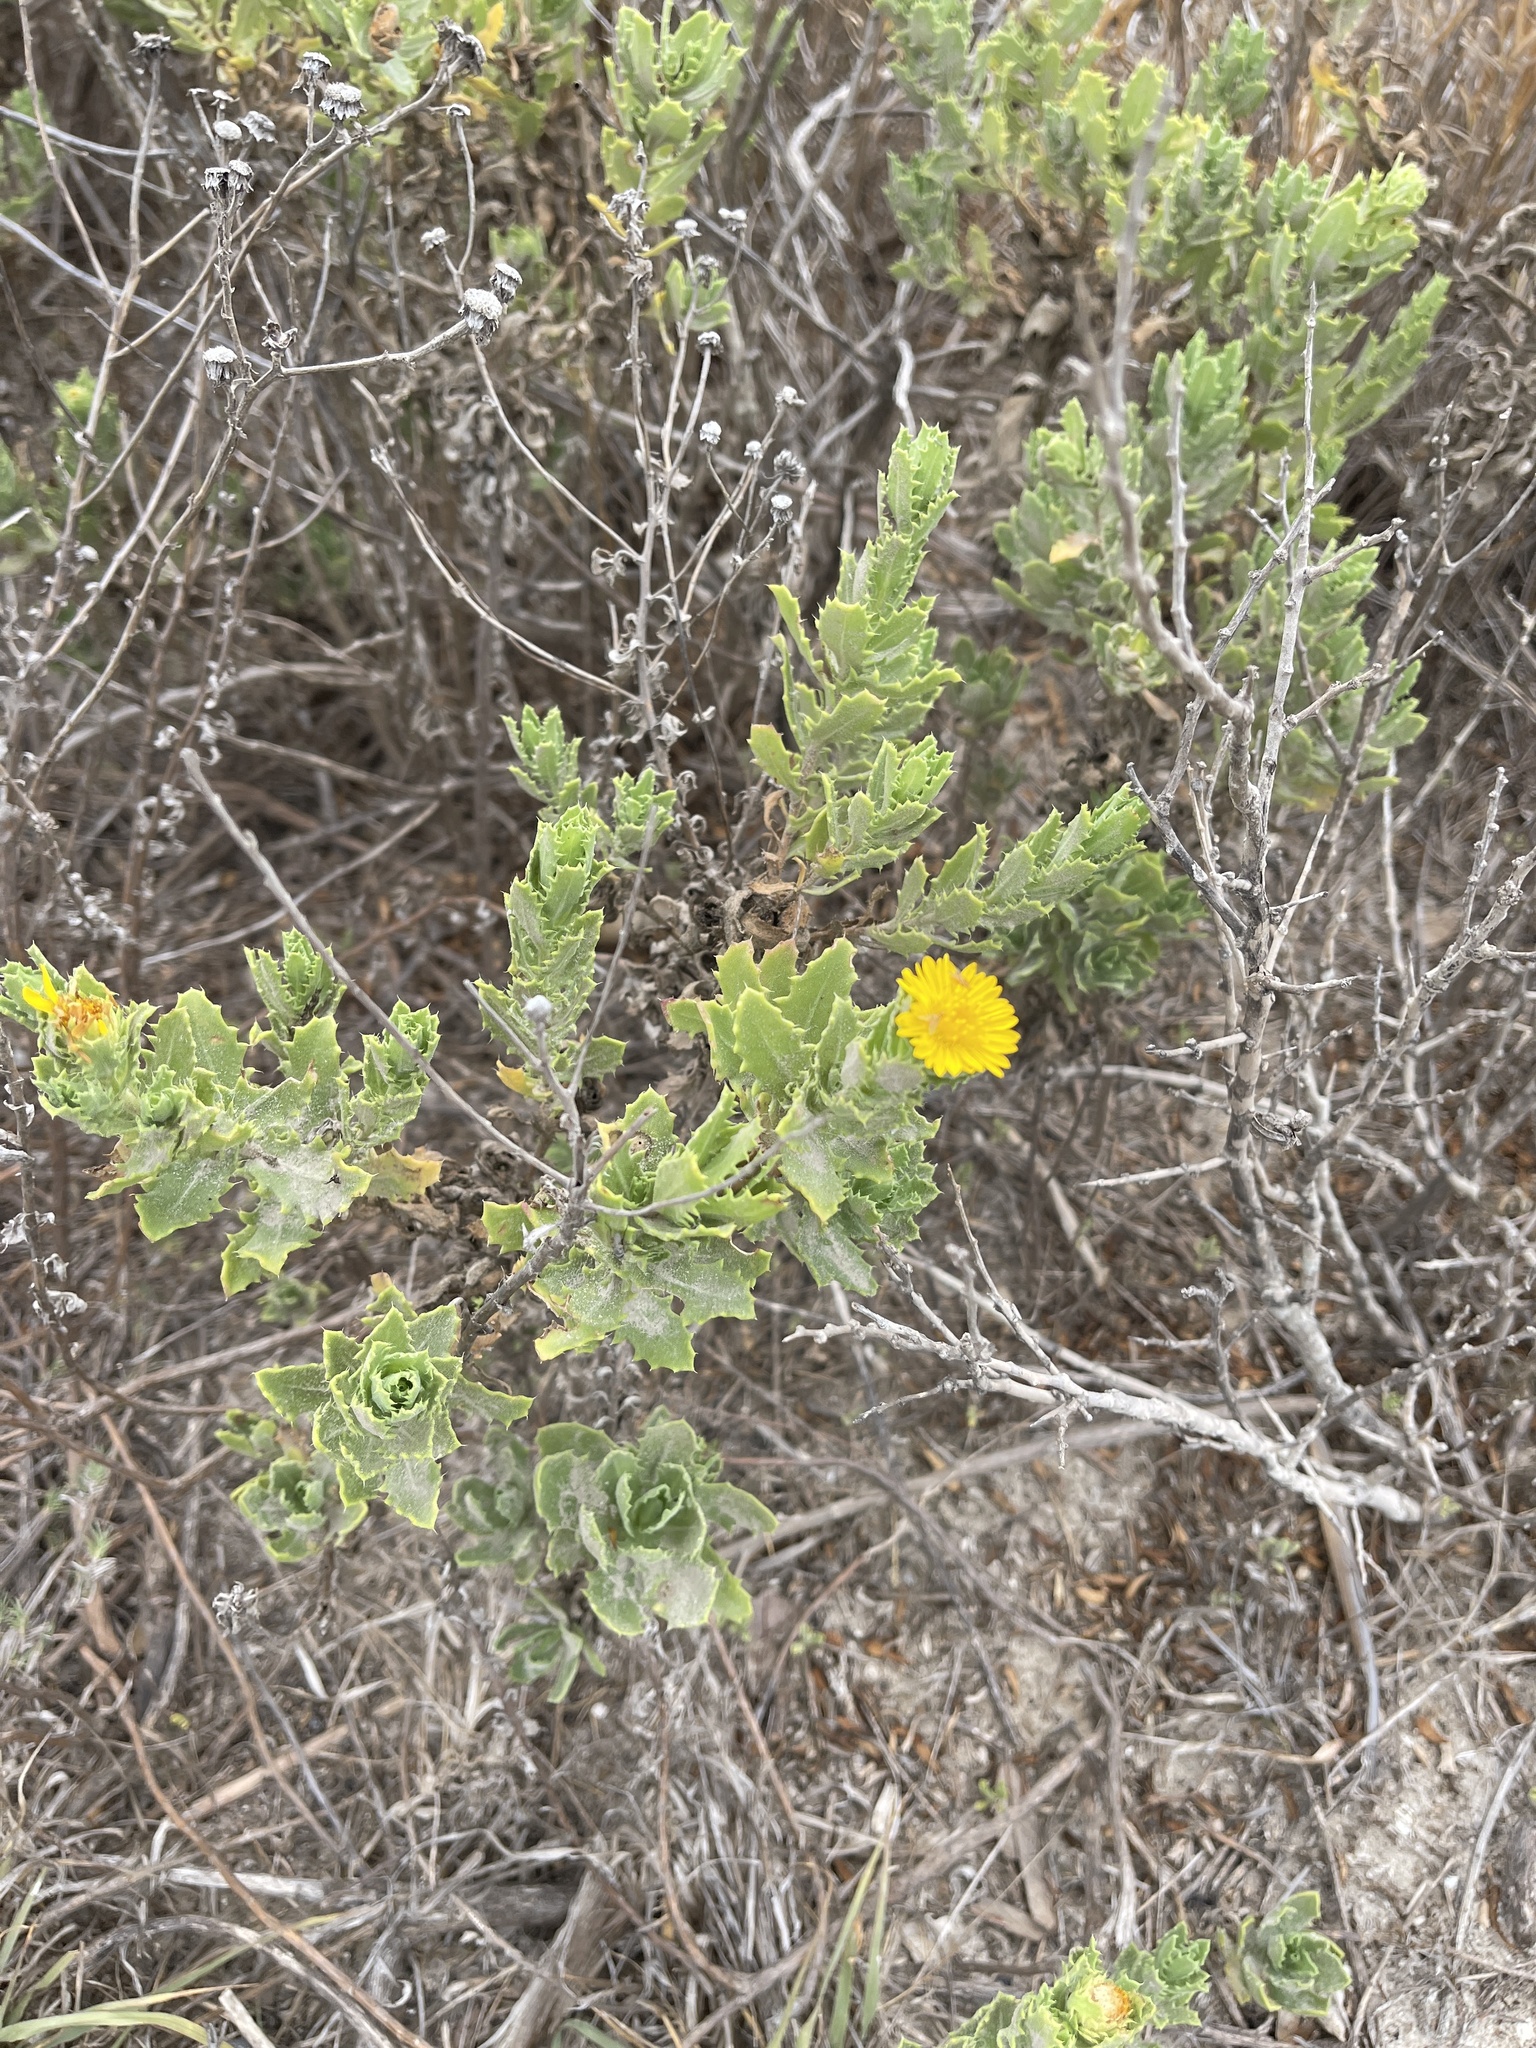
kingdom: Plantae
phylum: Tracheophyta
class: Magnoliopsida
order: Asterales
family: Asteraceae
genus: Rayjacksonia
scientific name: Rayjacksonia phyllocephala
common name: Gulf coast camphor daisy
